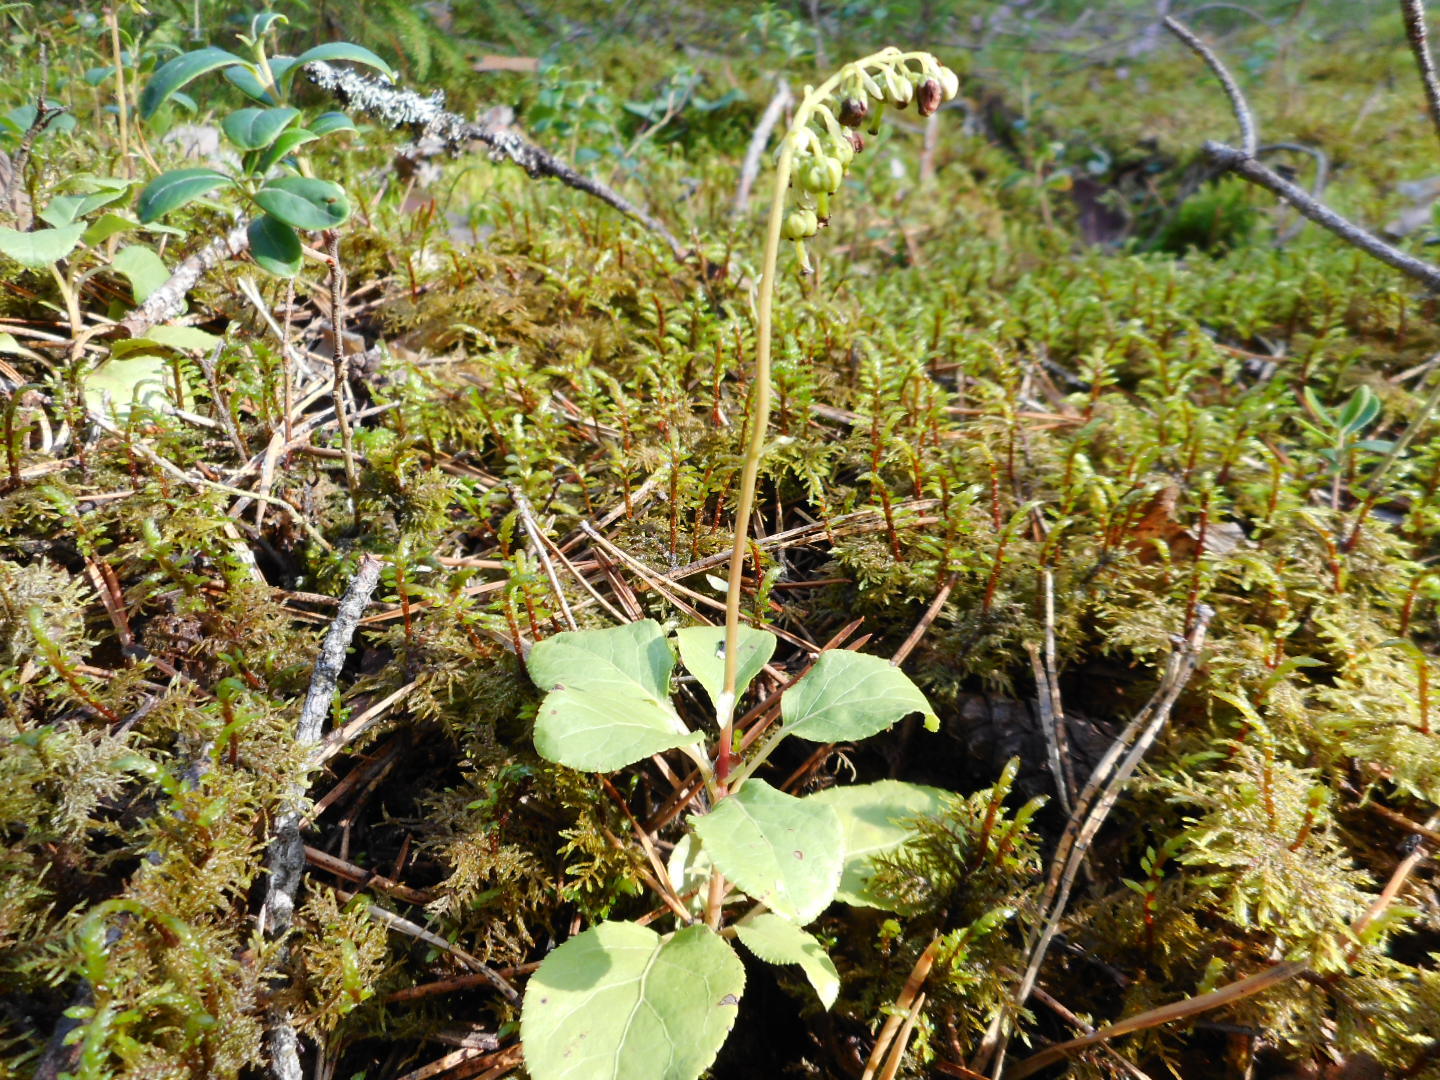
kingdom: Plantae
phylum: Tracheophyta
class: Magnoliopsida
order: Ericales
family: Ericaceae
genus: Orthilia
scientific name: Orthilia secunda
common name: One-sided orthilia
